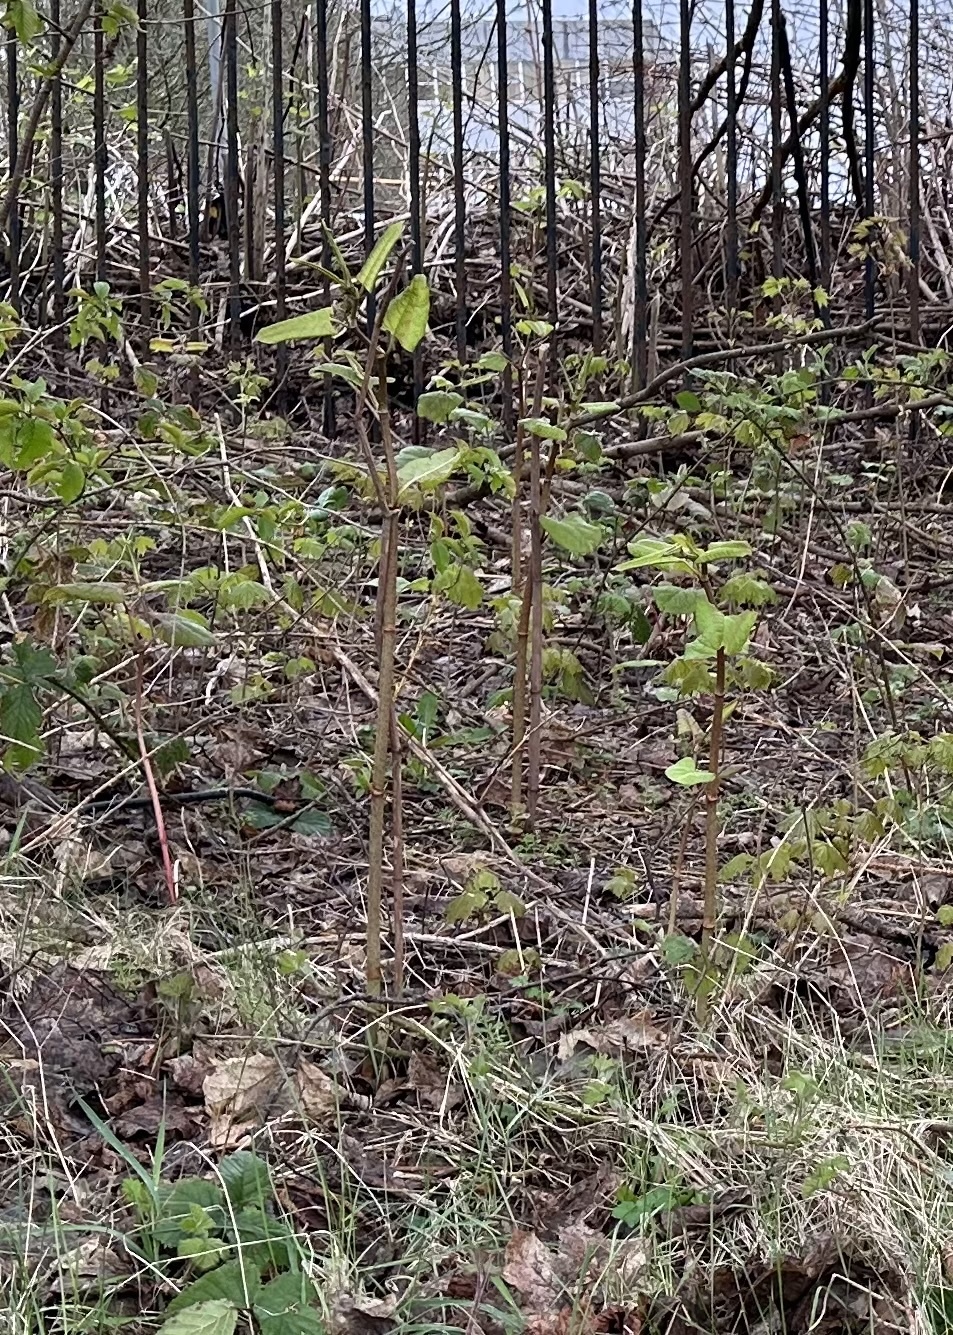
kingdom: Plantae
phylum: Tracheophyta
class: Magnoliopsida
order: Caryophyllales
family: Polygonaceae
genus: Reynoutria
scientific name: Reynoutria japonica
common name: Japanese knotweed
